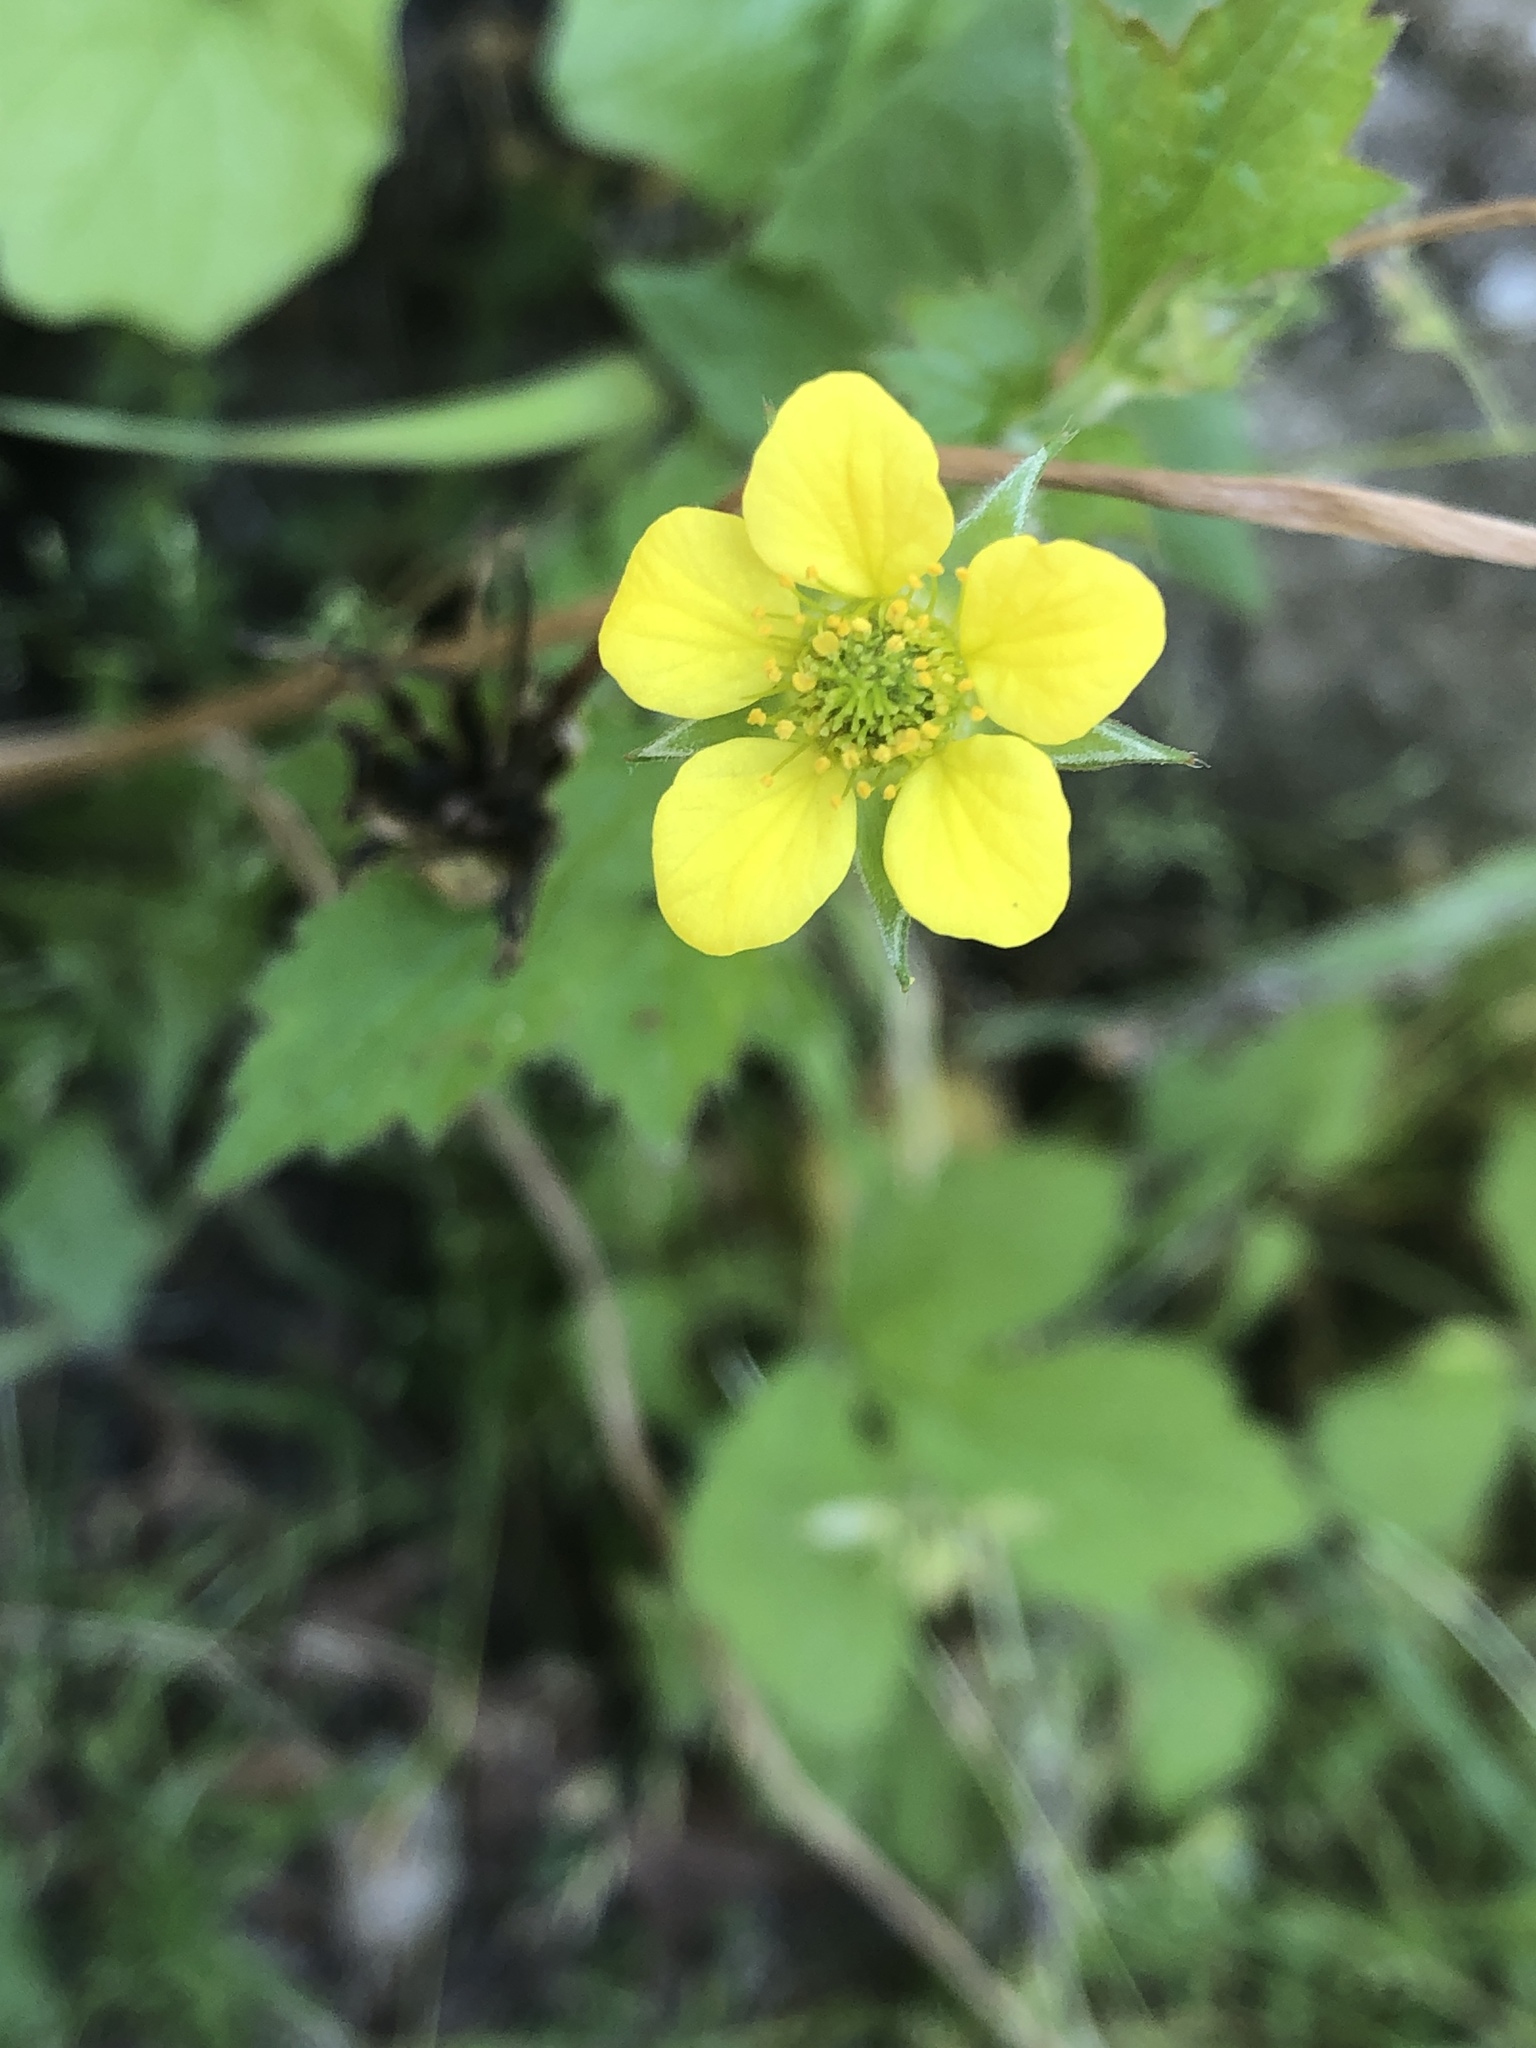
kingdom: Plantae
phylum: Tracheophyta
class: Magnoliopsida
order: Rosales
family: Rosaceae
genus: Geum
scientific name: Geum urbanum
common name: Wood avens
